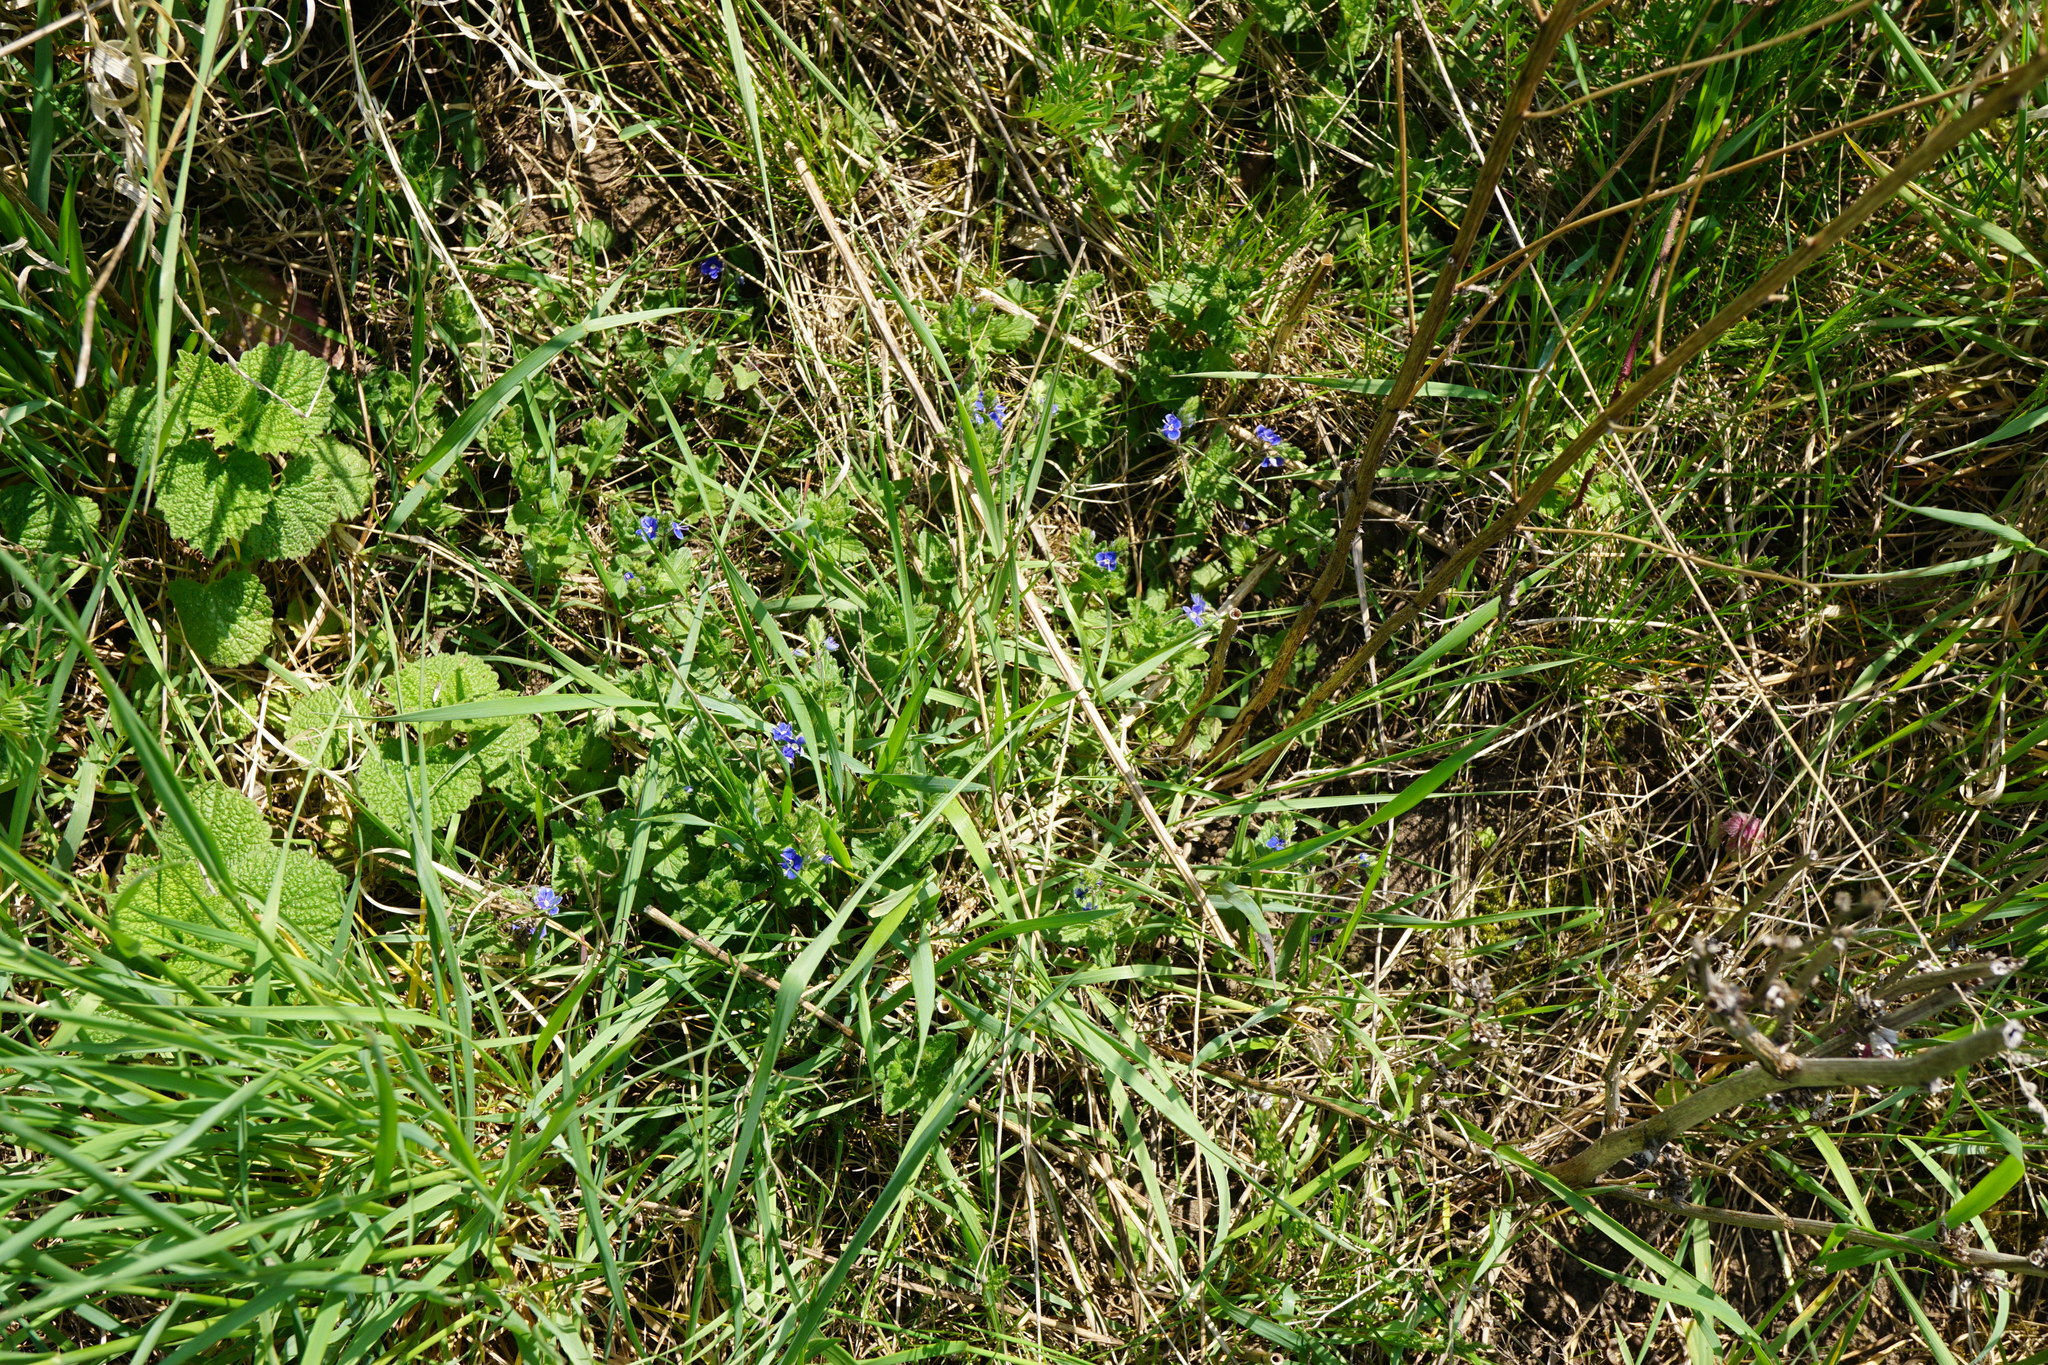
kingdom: Plantae
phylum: Tracheophyta
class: Magnoliopsida
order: Lamiales
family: Plantaginaceae
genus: Veronica
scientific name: Veronica chamaedrys
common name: Germander speedwell
